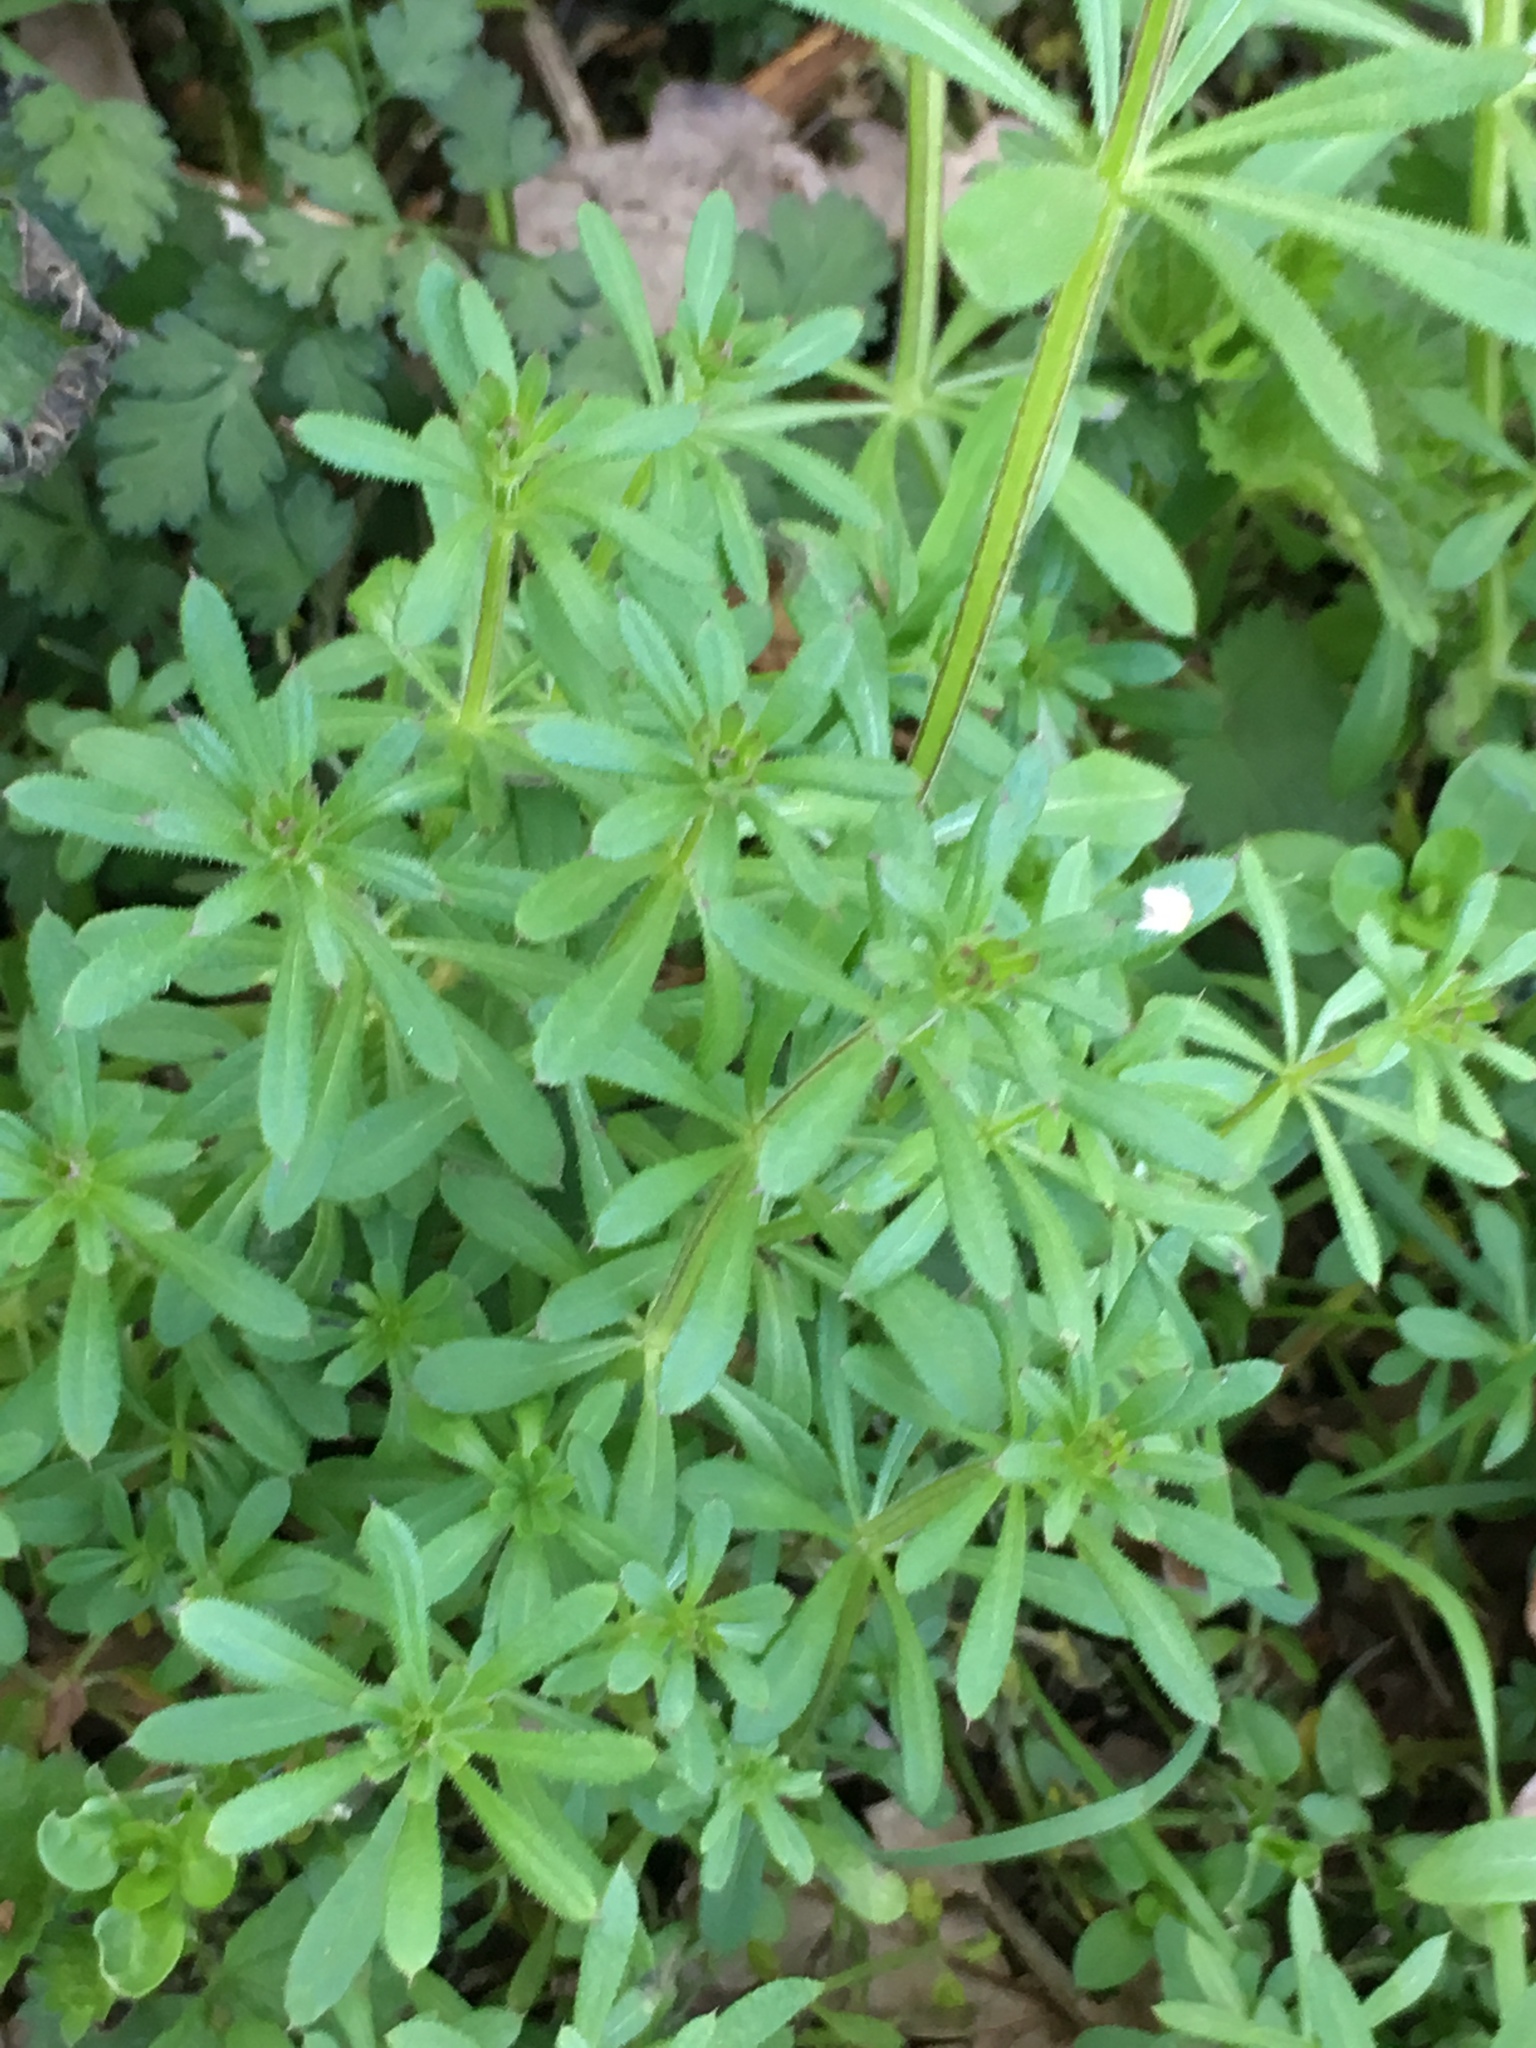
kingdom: Plantae
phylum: Tracheophyta
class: Magnoliopsida
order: Gentianales
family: Rubiaceae
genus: Galium
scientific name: Galium aparine
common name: Cleavers
